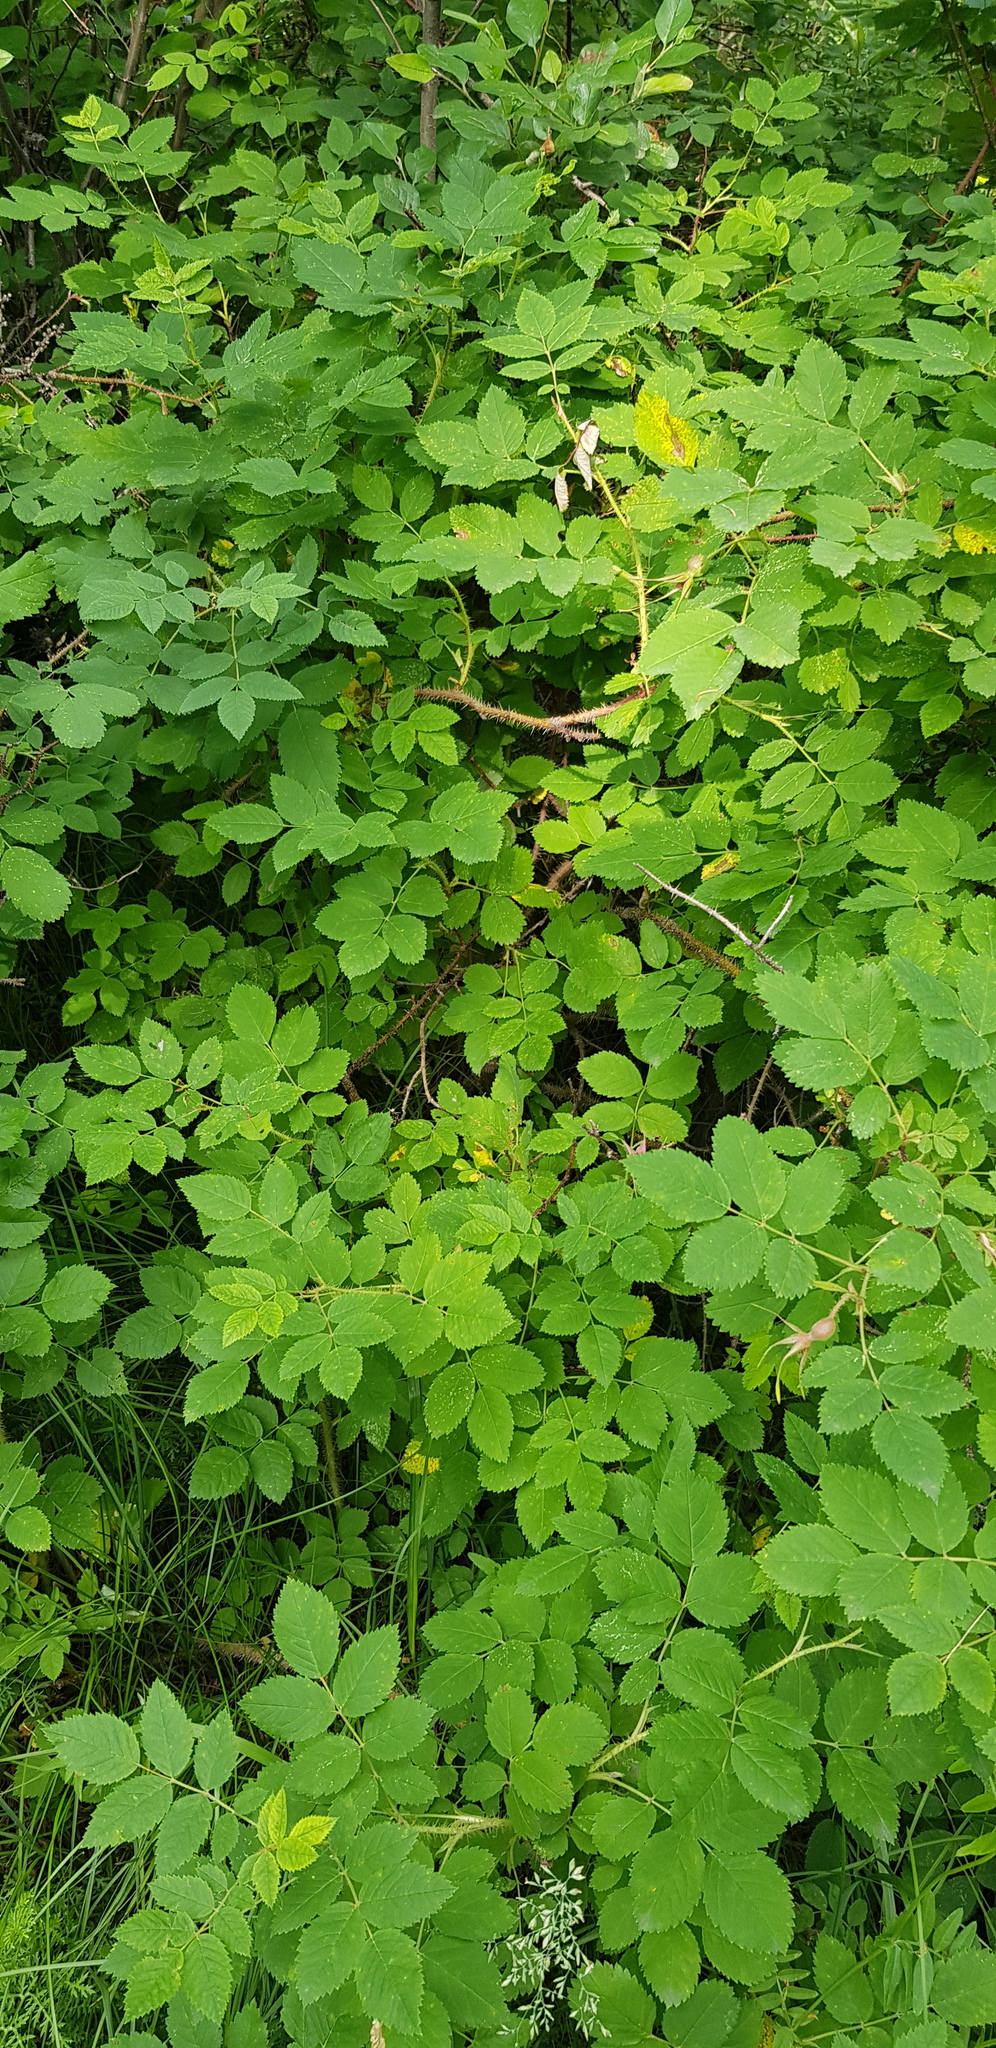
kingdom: Plantae
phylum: Tracheophyta
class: Magnoliopsida
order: Rosales
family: Rosaceae
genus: Rosa
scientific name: Rosa acicularis
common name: Prickly rose
